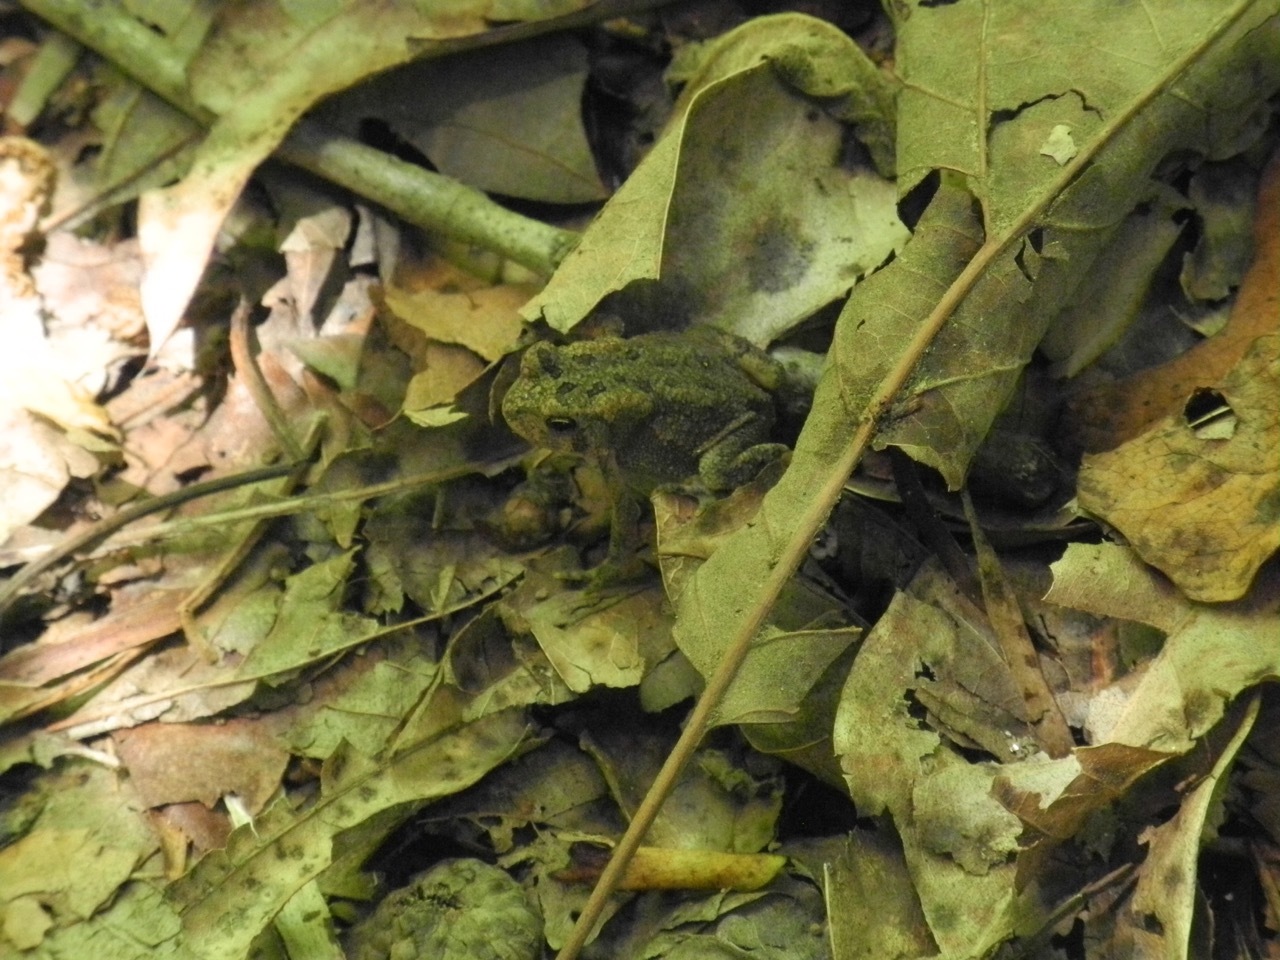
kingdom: Animalia
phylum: Chordata
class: Amphibia
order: Anura
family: Bufonidae
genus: Anaxyrus
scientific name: Anaxyrus americanus
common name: American toad
